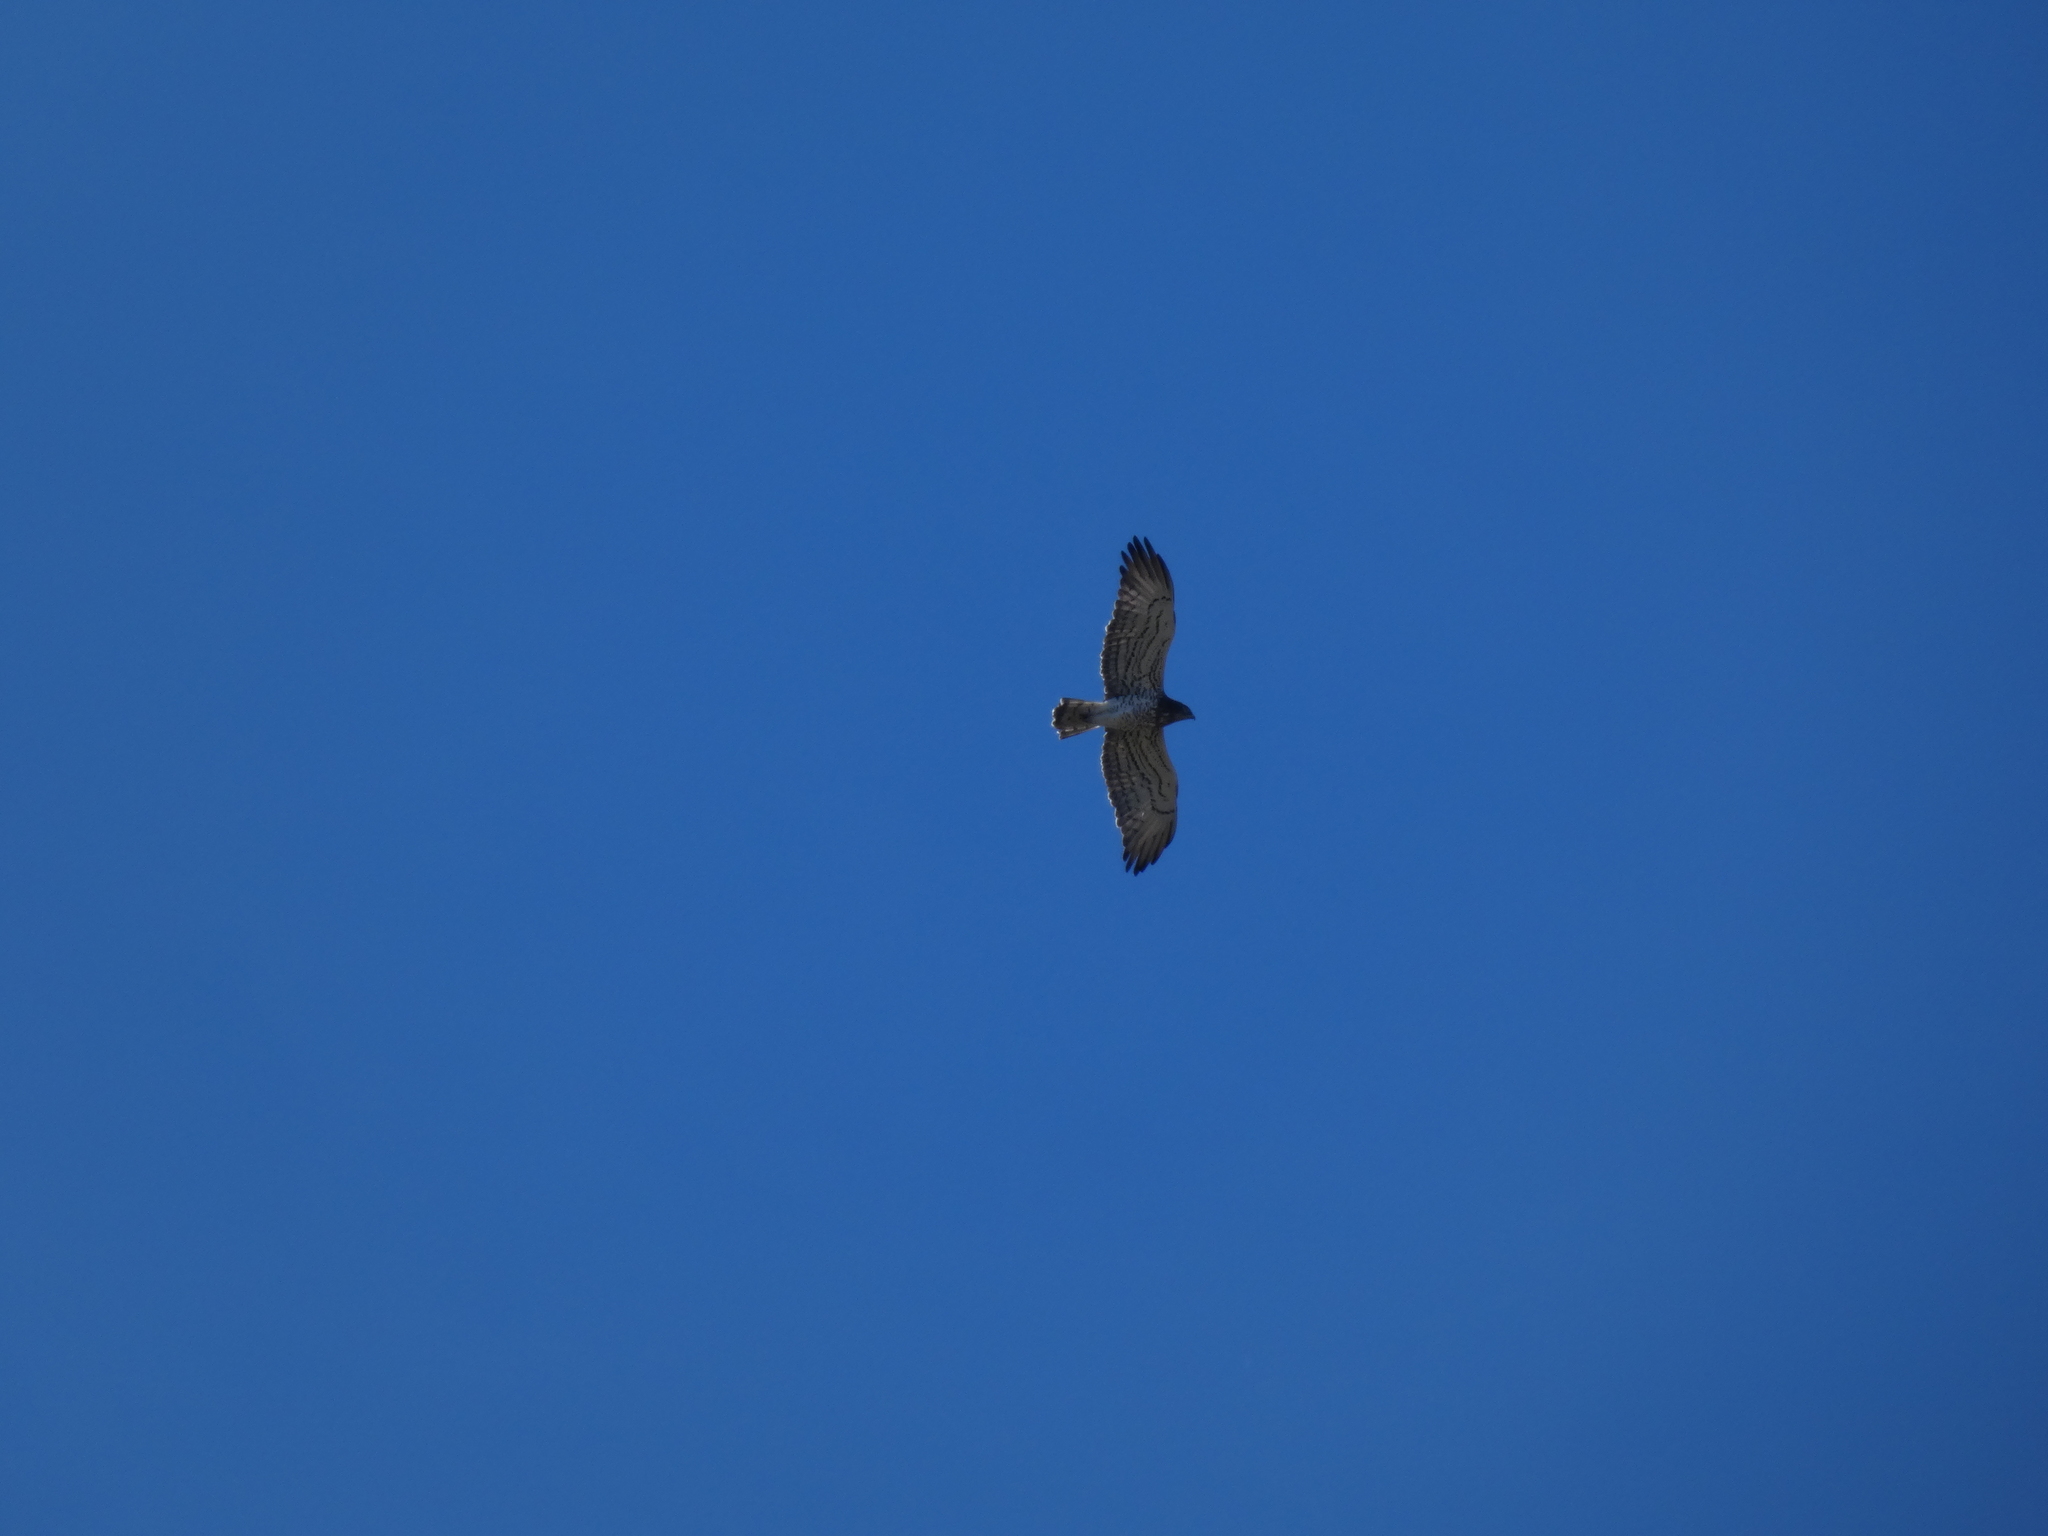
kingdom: Animalia
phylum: Chordata
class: Aves
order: Accipitriformes
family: Accipitridae
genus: Circaetus
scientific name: Circaetus gallicus
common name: Short-toed snake eagle
